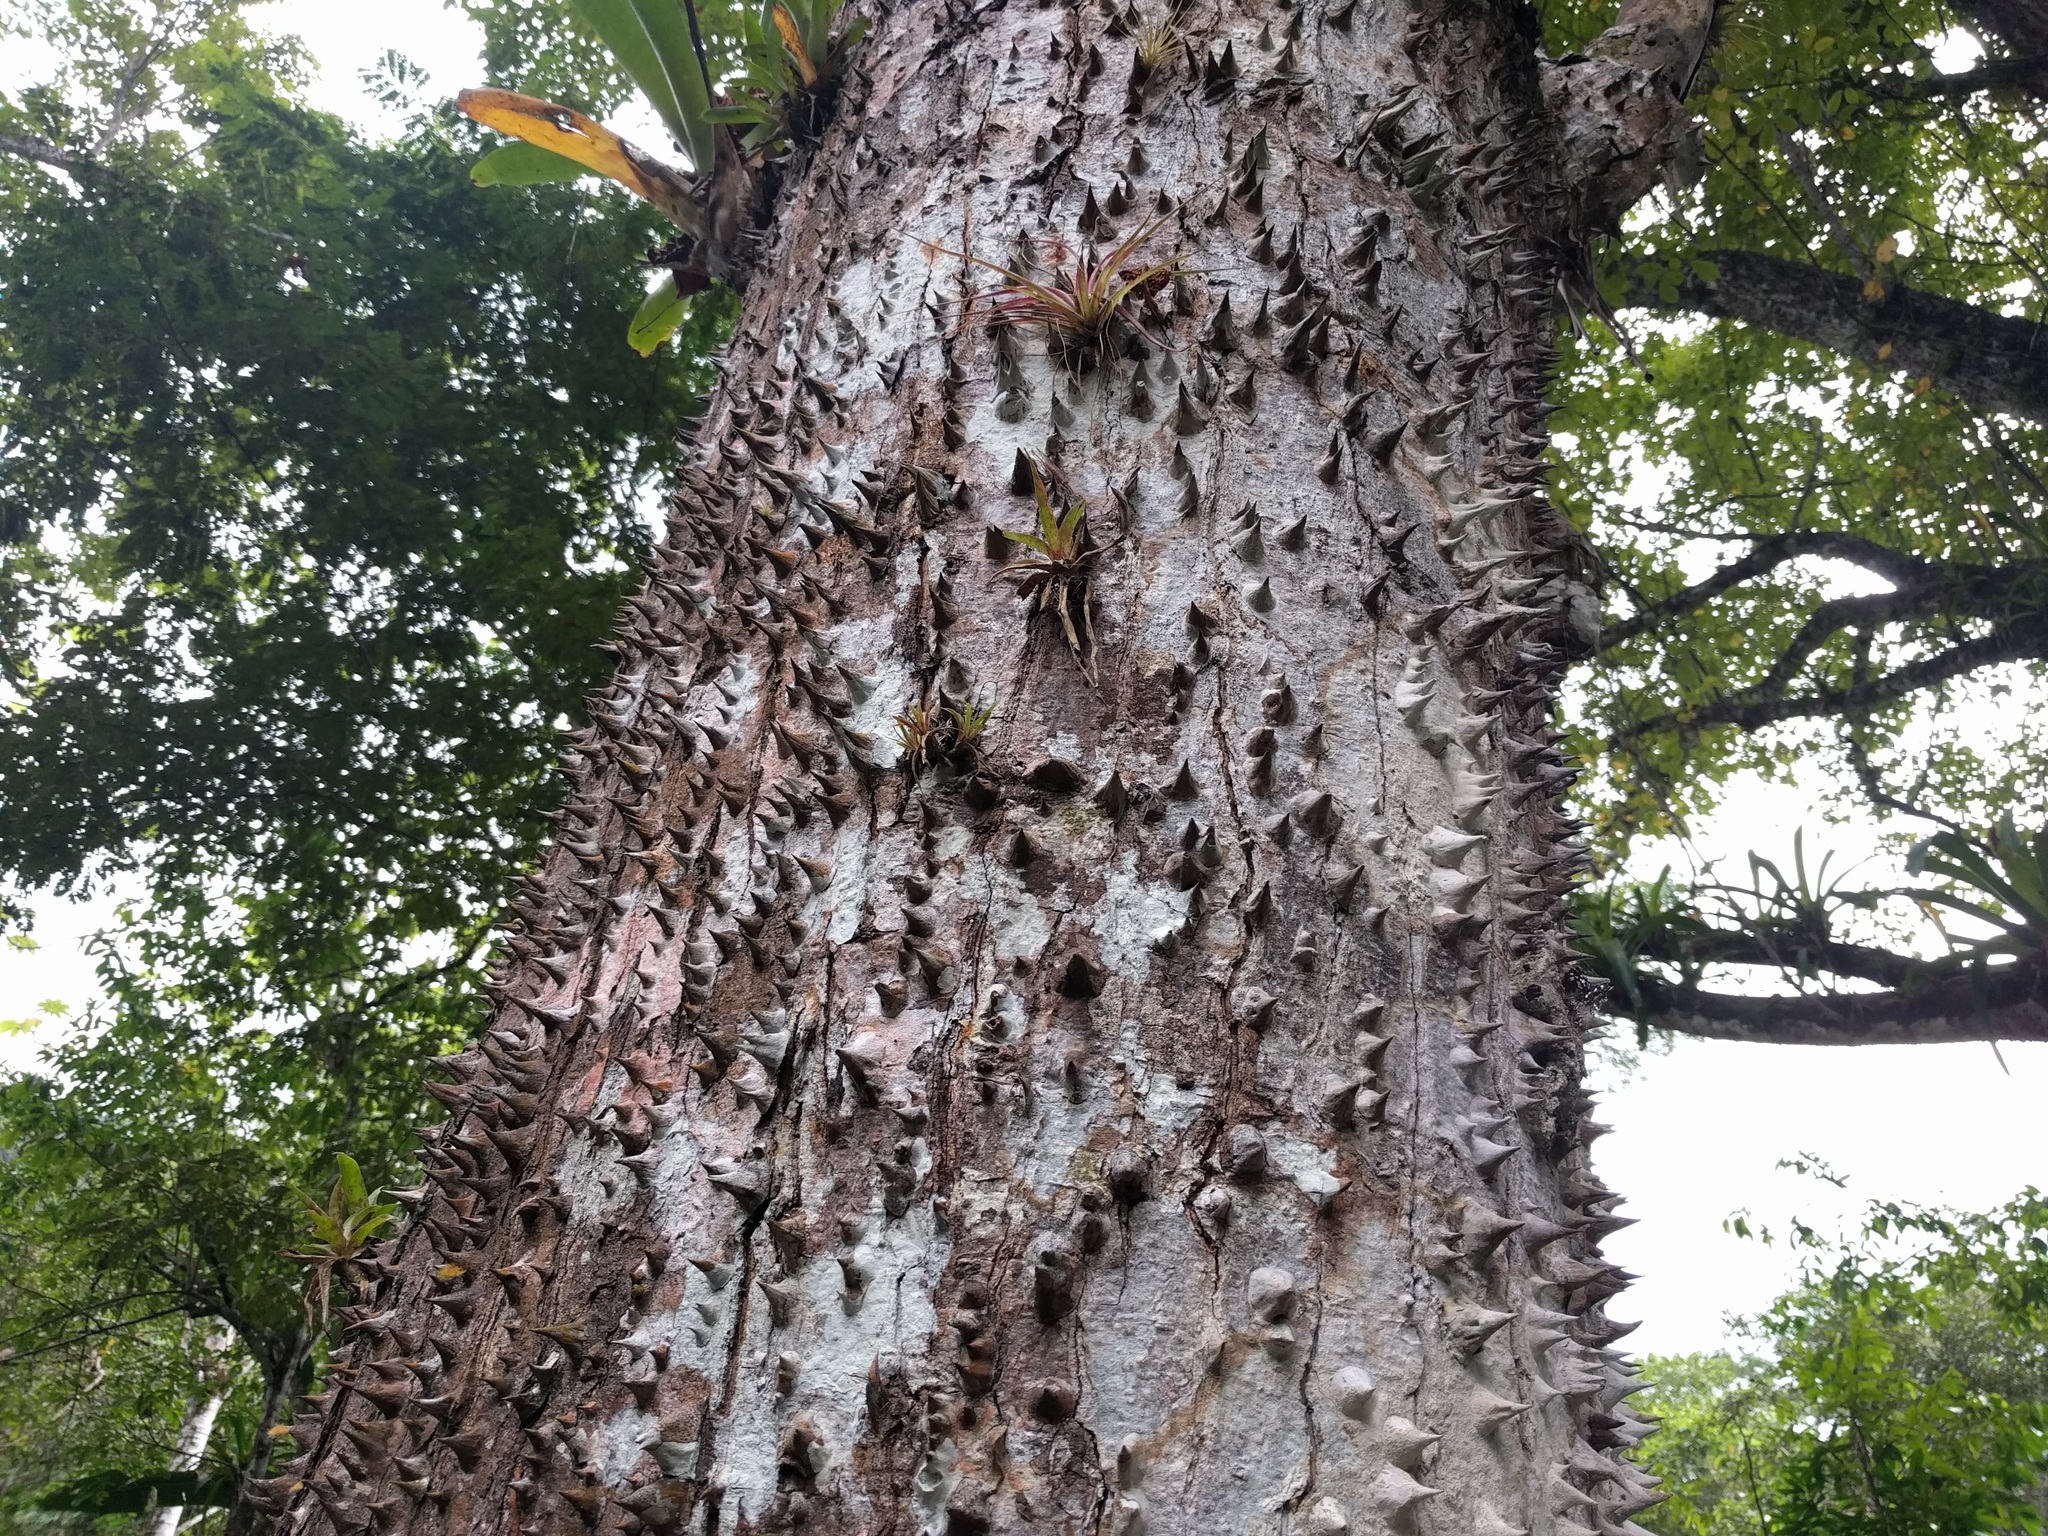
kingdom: Plantae
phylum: Tracheophyta
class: Magnoliopsida
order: Malvales
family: Malvaceae
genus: Ceiba
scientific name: Ceiba pentandra
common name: Kapok
